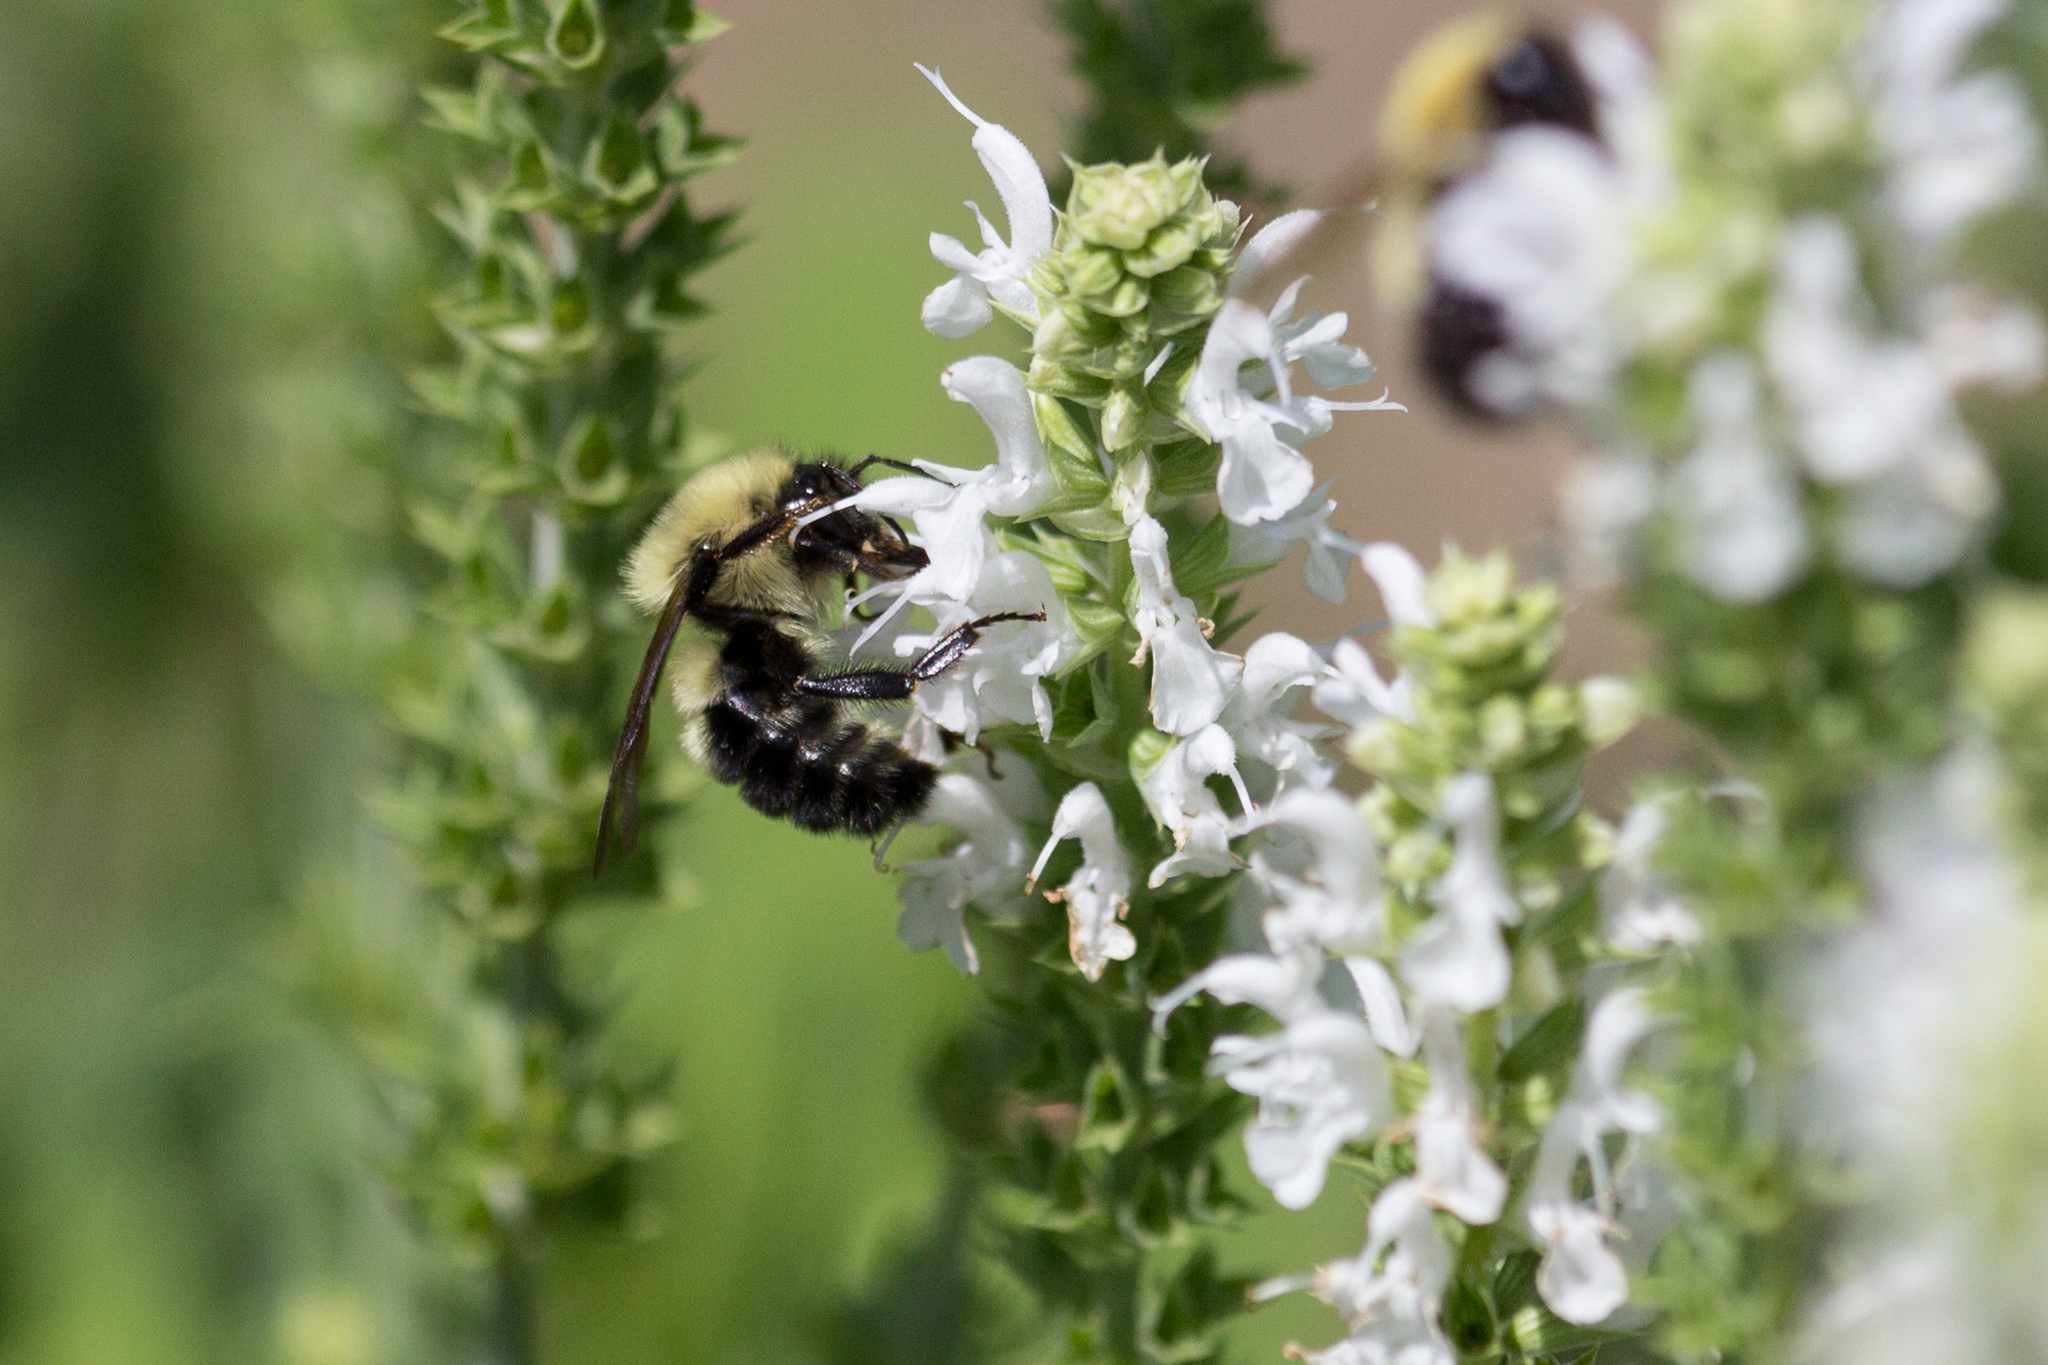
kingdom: Animalia
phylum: Arthropoda
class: Insecta
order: Hymenoptera
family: Apidae
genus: Bombus
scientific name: Bombus perplexus
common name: Confusing bumble bee
